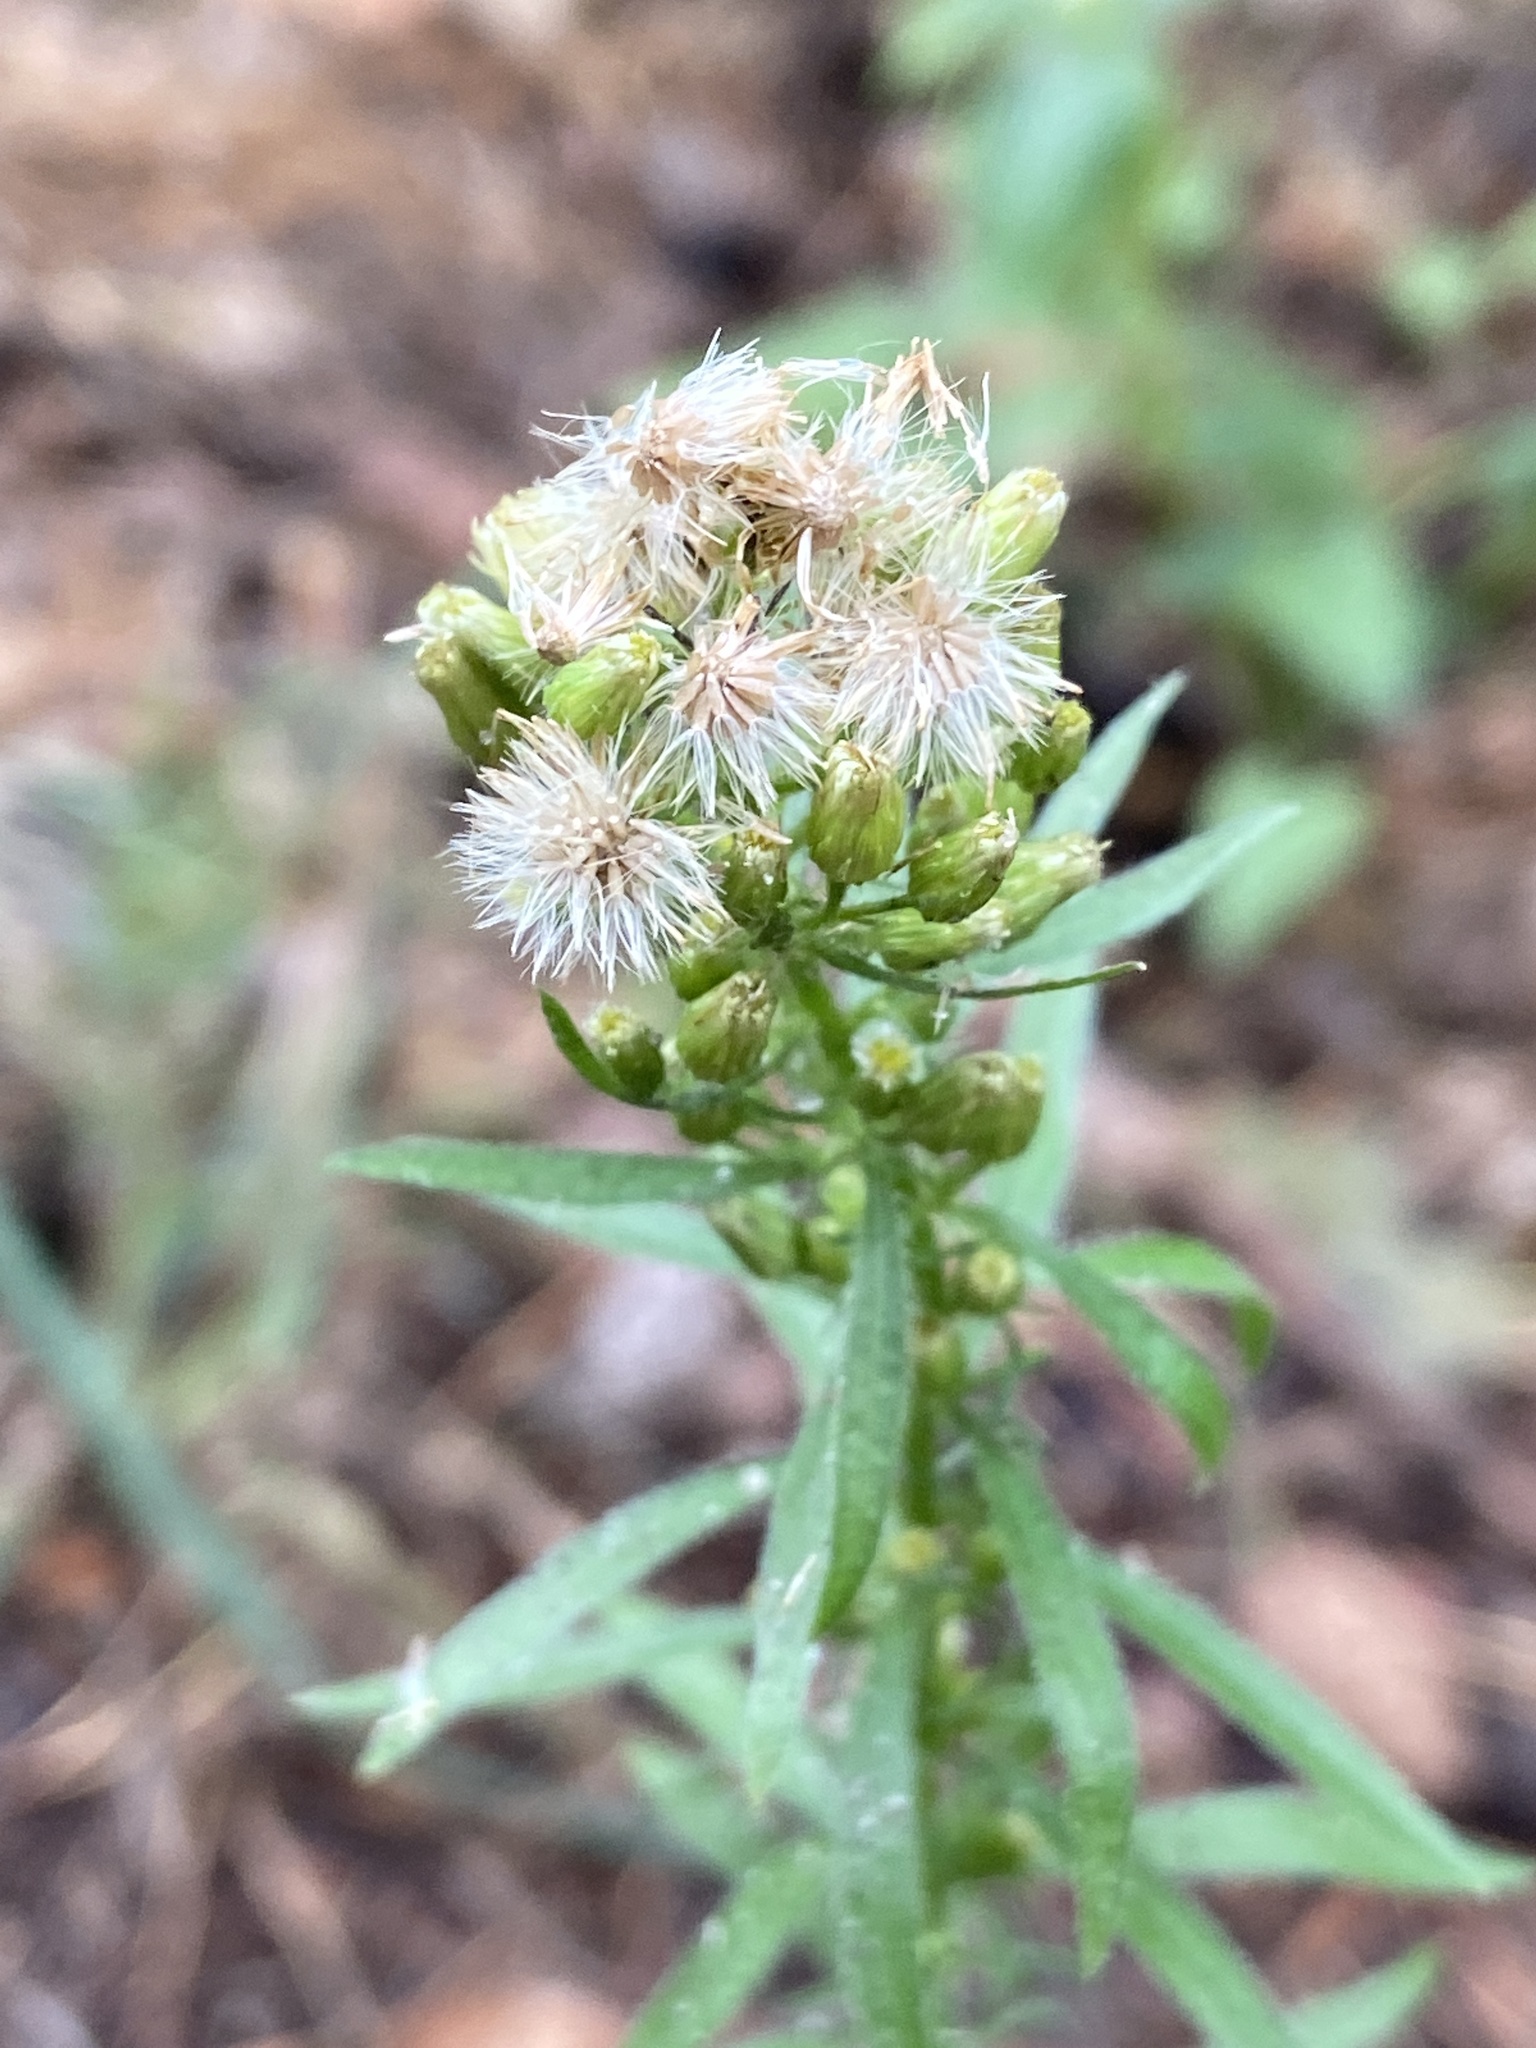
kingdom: Plantae
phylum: Tracheophyta
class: Magnoliopsida
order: Asterales
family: Asteraceae
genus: Erigeron
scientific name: Erigeron canadensis
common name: Canadian fleabane
